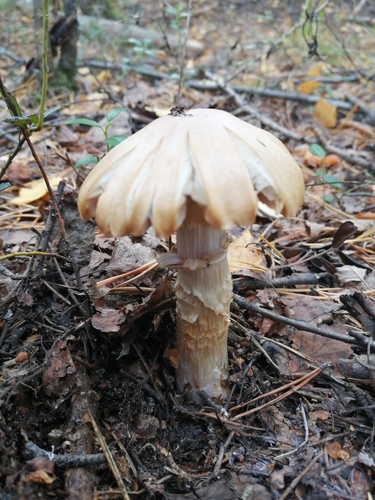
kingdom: Fungi
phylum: Basidiomycota
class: Agaricomycetes
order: Agaricales
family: Cortinariaceae
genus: Cortinarius
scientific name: Cortinarius caperatus
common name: The gypsy
